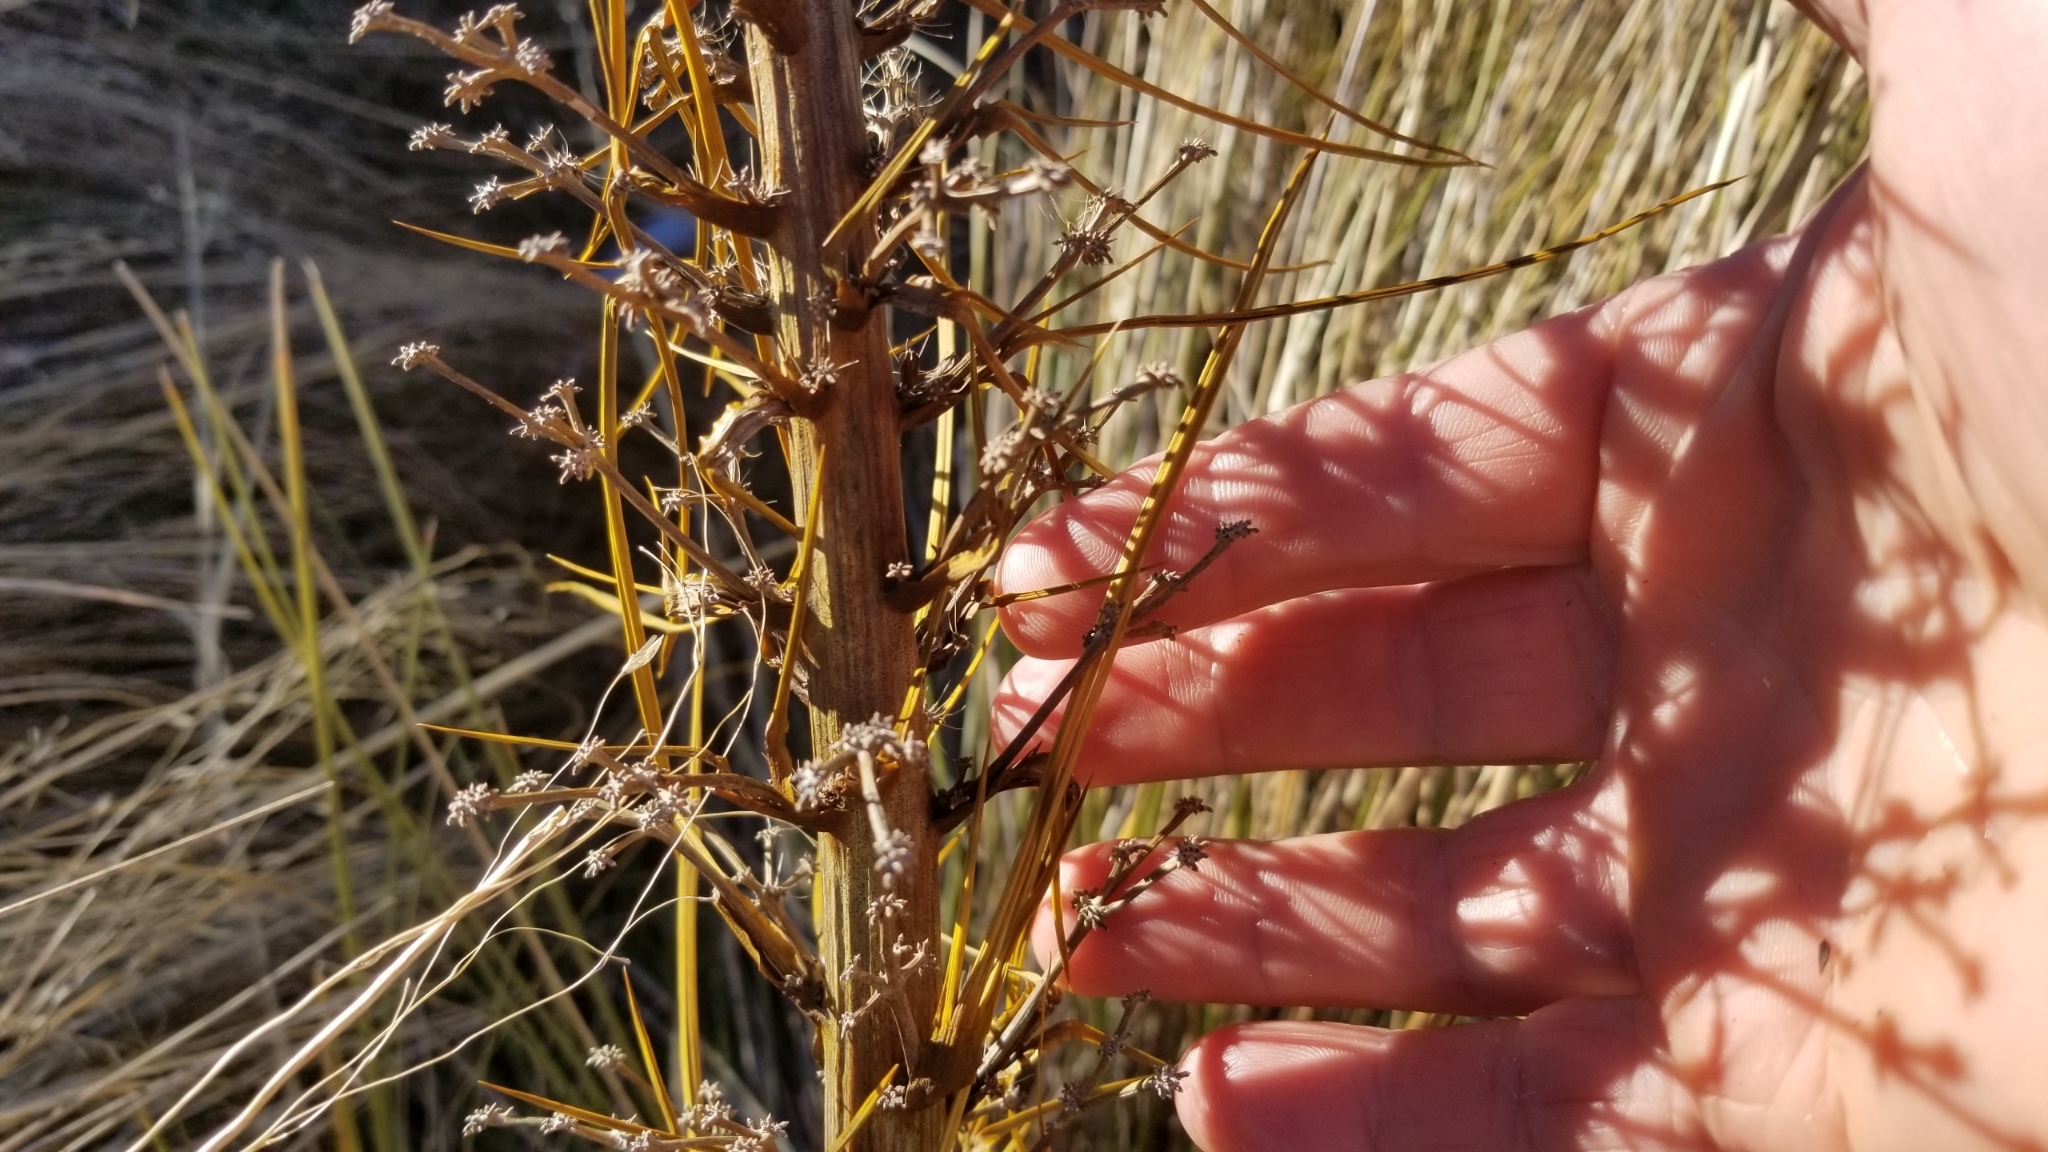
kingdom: Plantae
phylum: Tracheophyta
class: Magnoliopsida
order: Apiales
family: Apiaceae
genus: Aciphylla
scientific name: Aciphylla aurea
